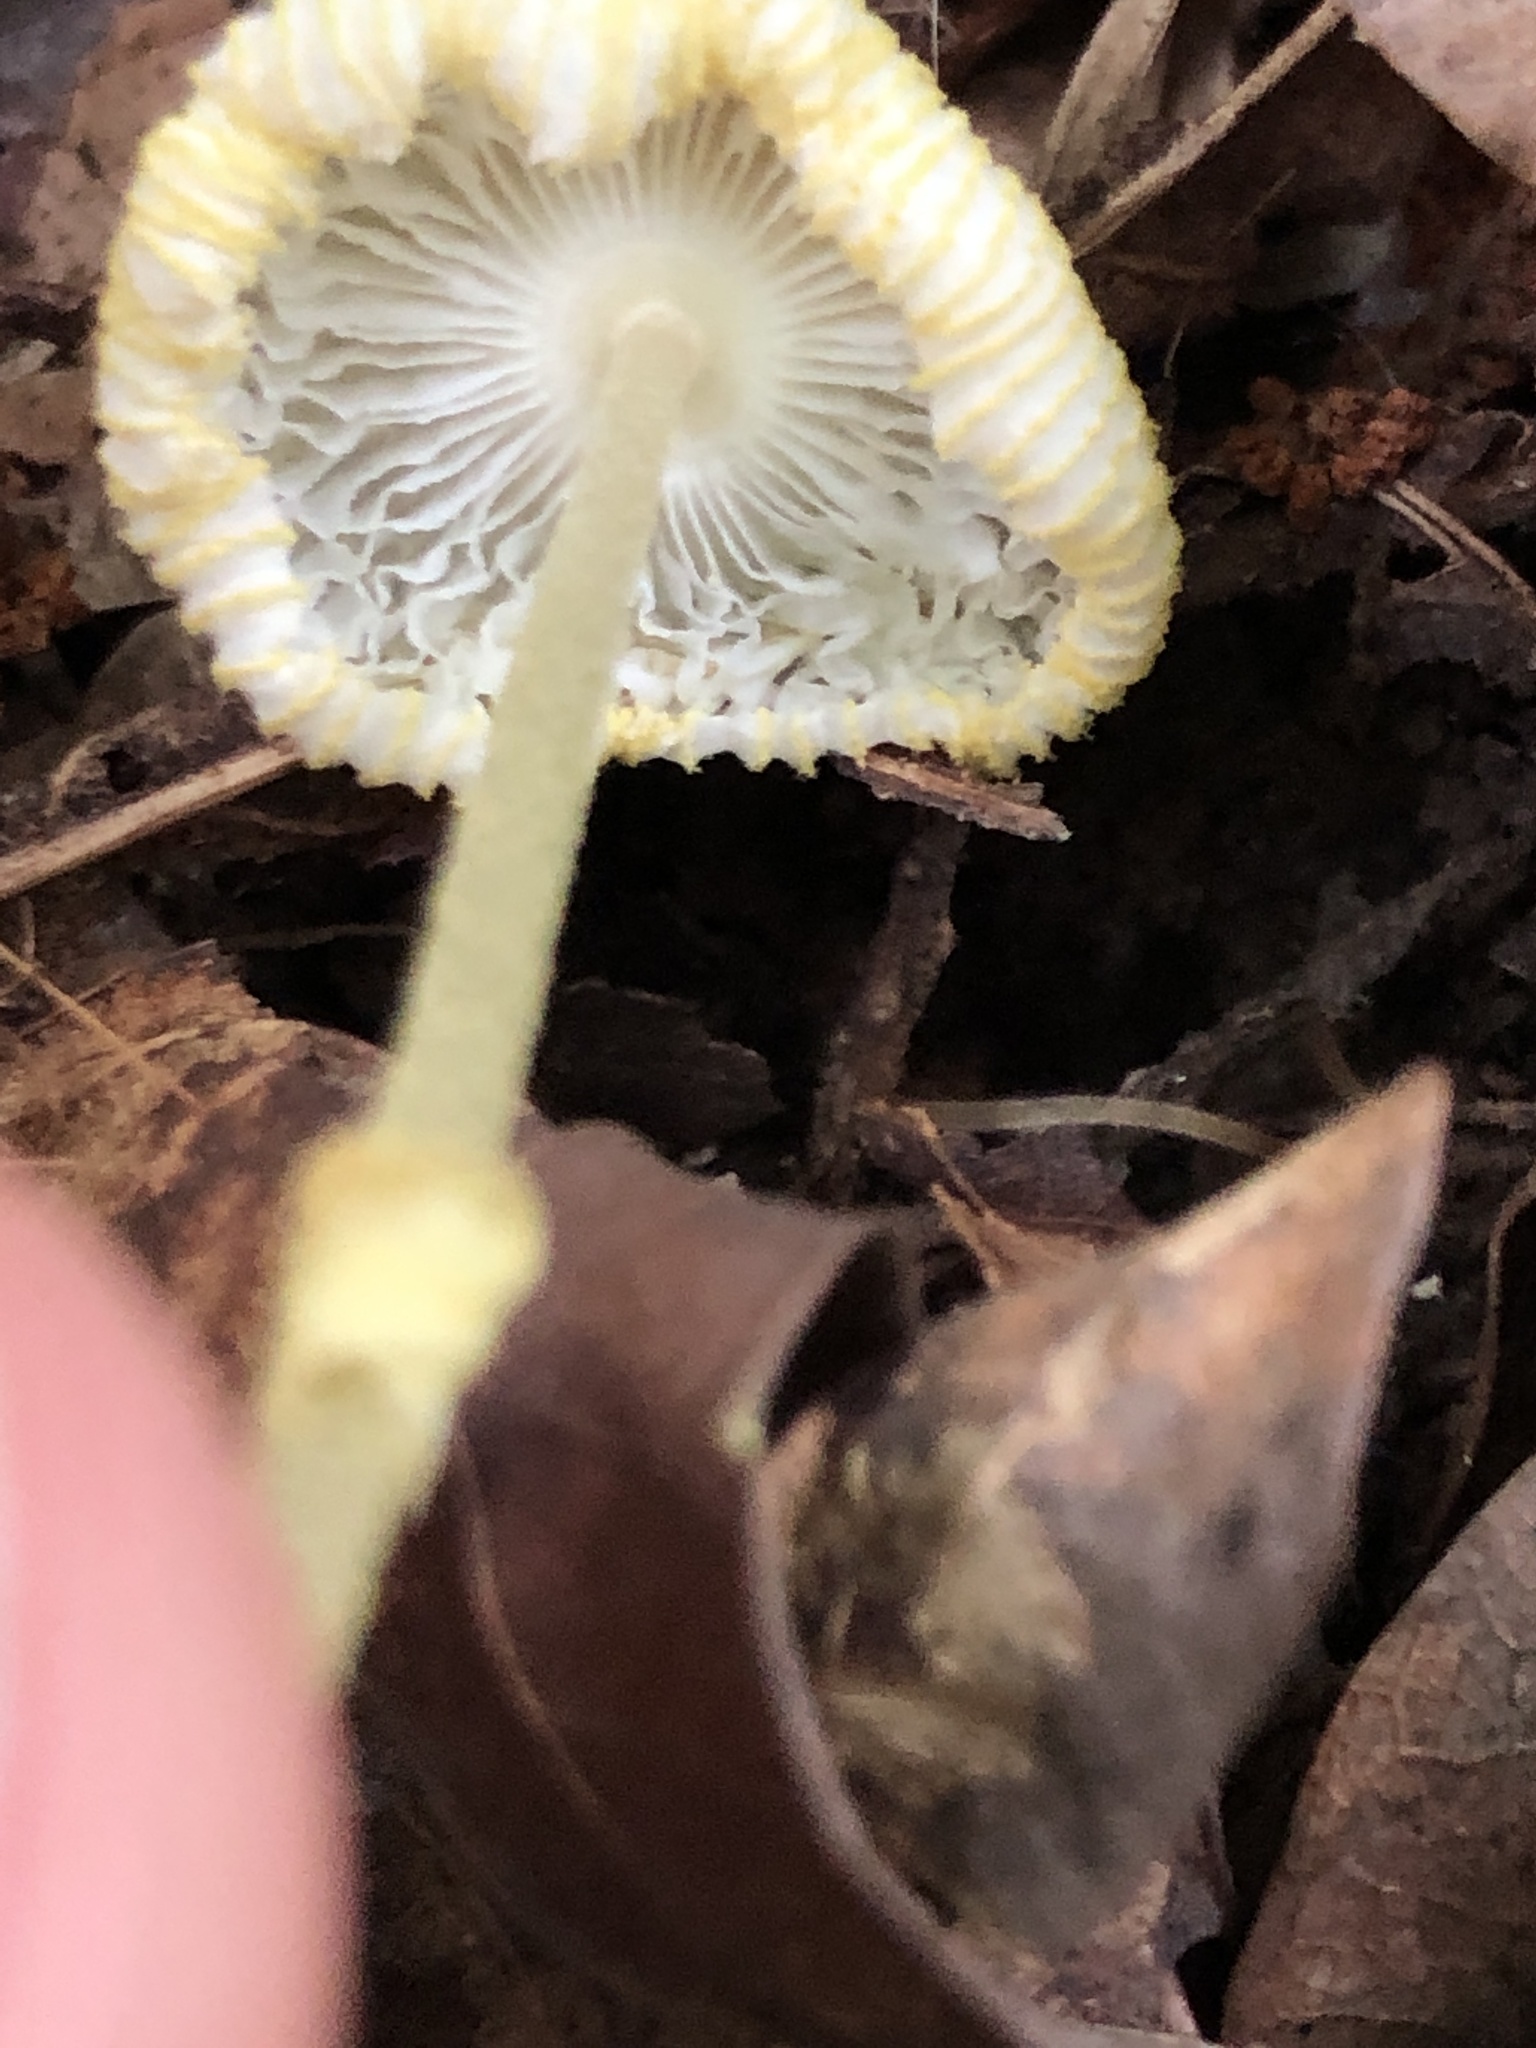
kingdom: Fungi
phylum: Basidiomycota
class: Agaricomycetes
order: Agaricales
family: Agaricaceae
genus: Leucocoprinus
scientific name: Leucocoprinus fragilissimus
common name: Fragile dapperling
